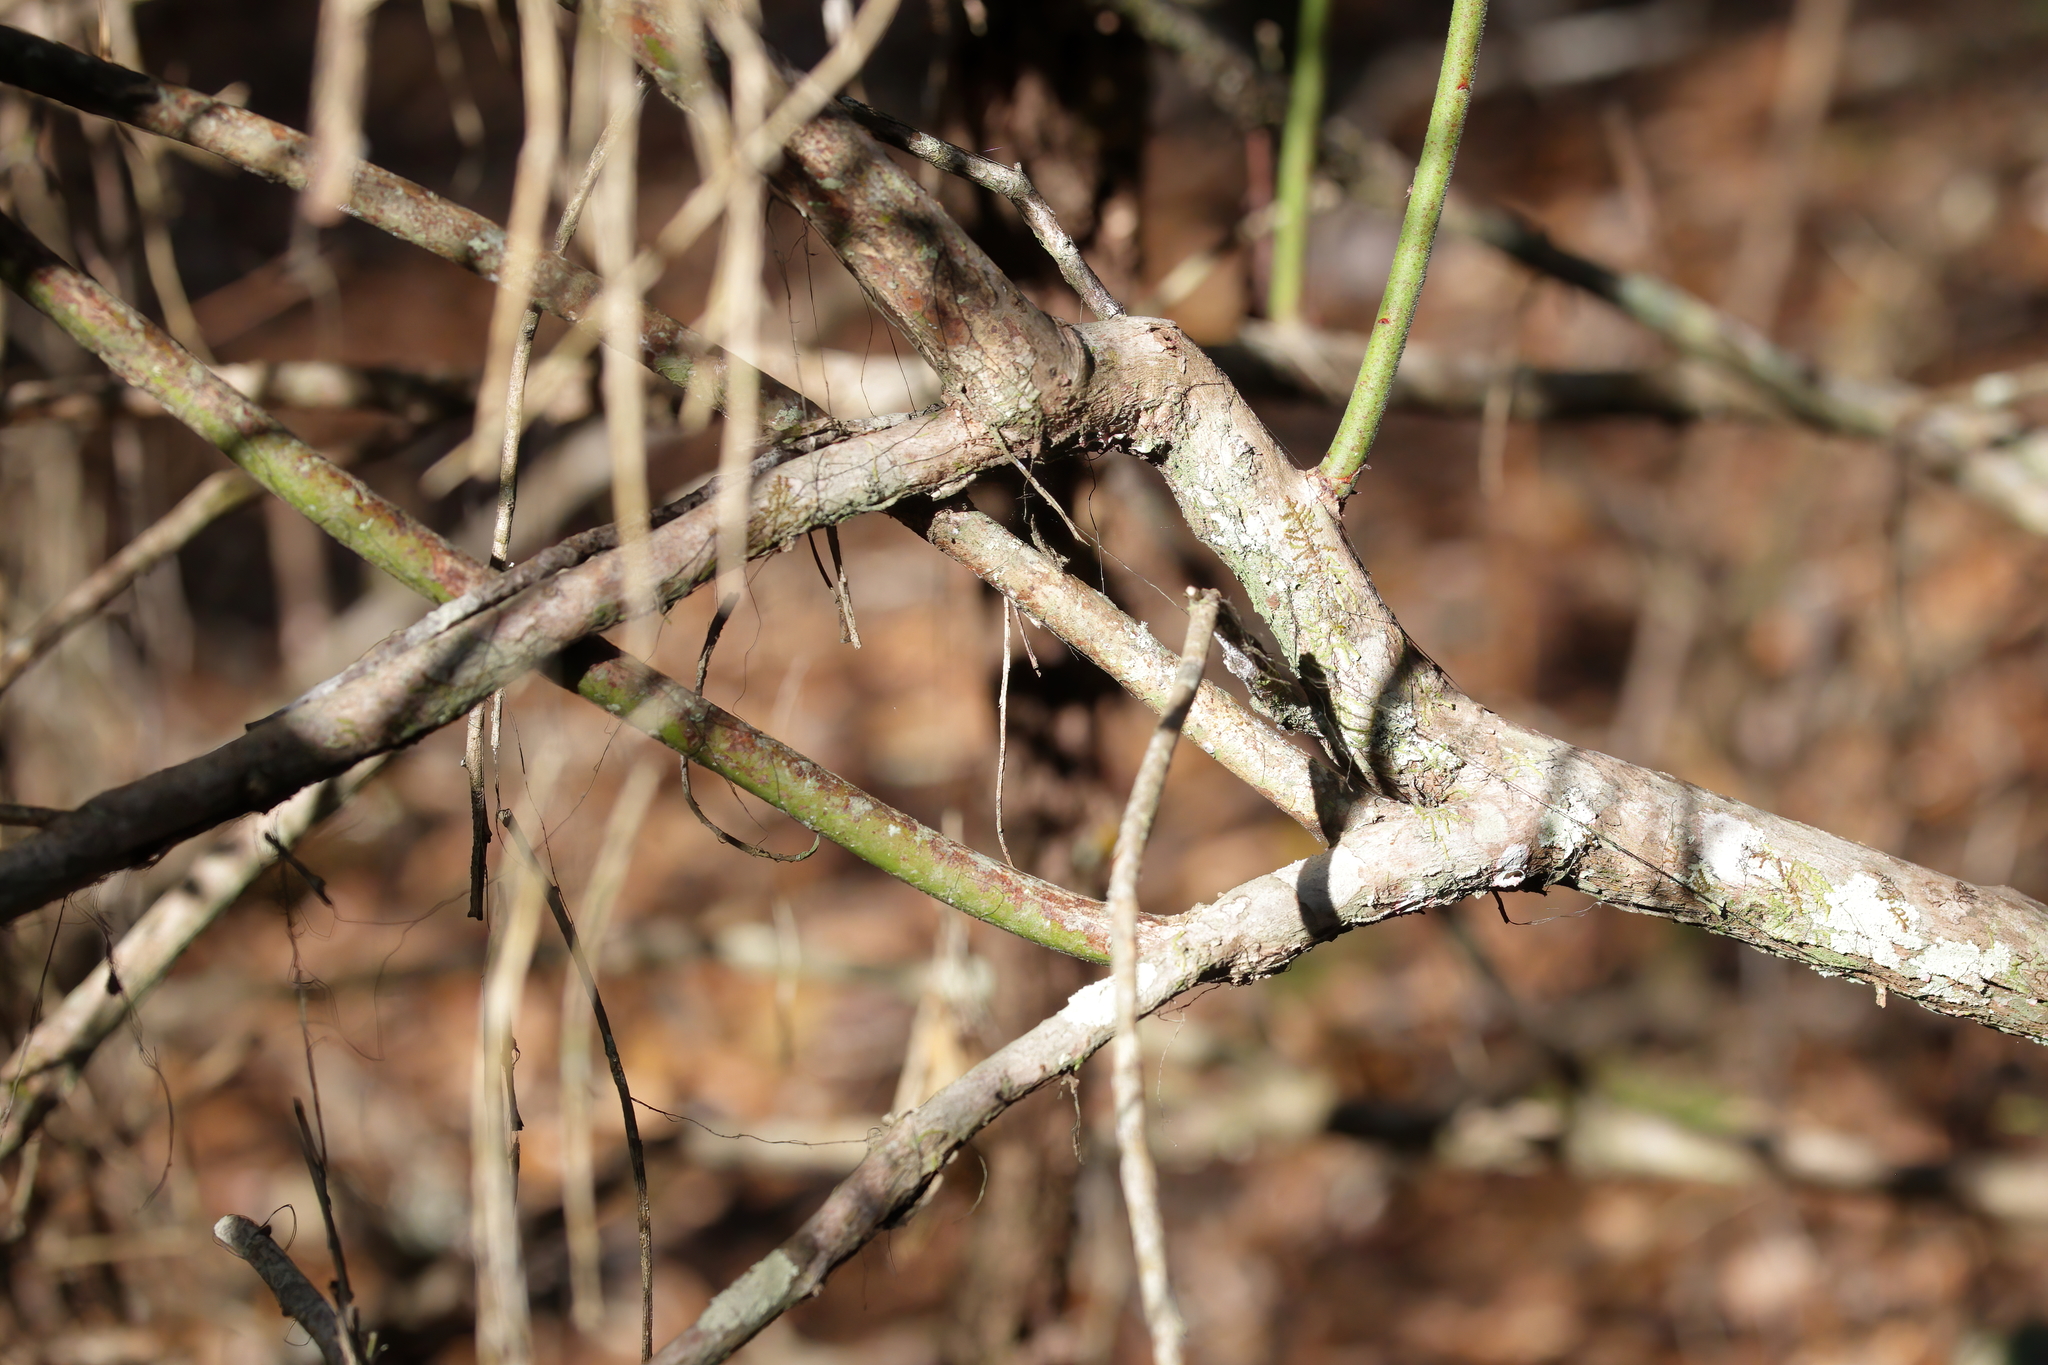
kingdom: Plantae
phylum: Tracheophyta
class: Magnoliopsida
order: Ericales
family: Ericaceae
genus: Vaccinium
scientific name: Vaccinium corymbosum
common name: Blueberry
